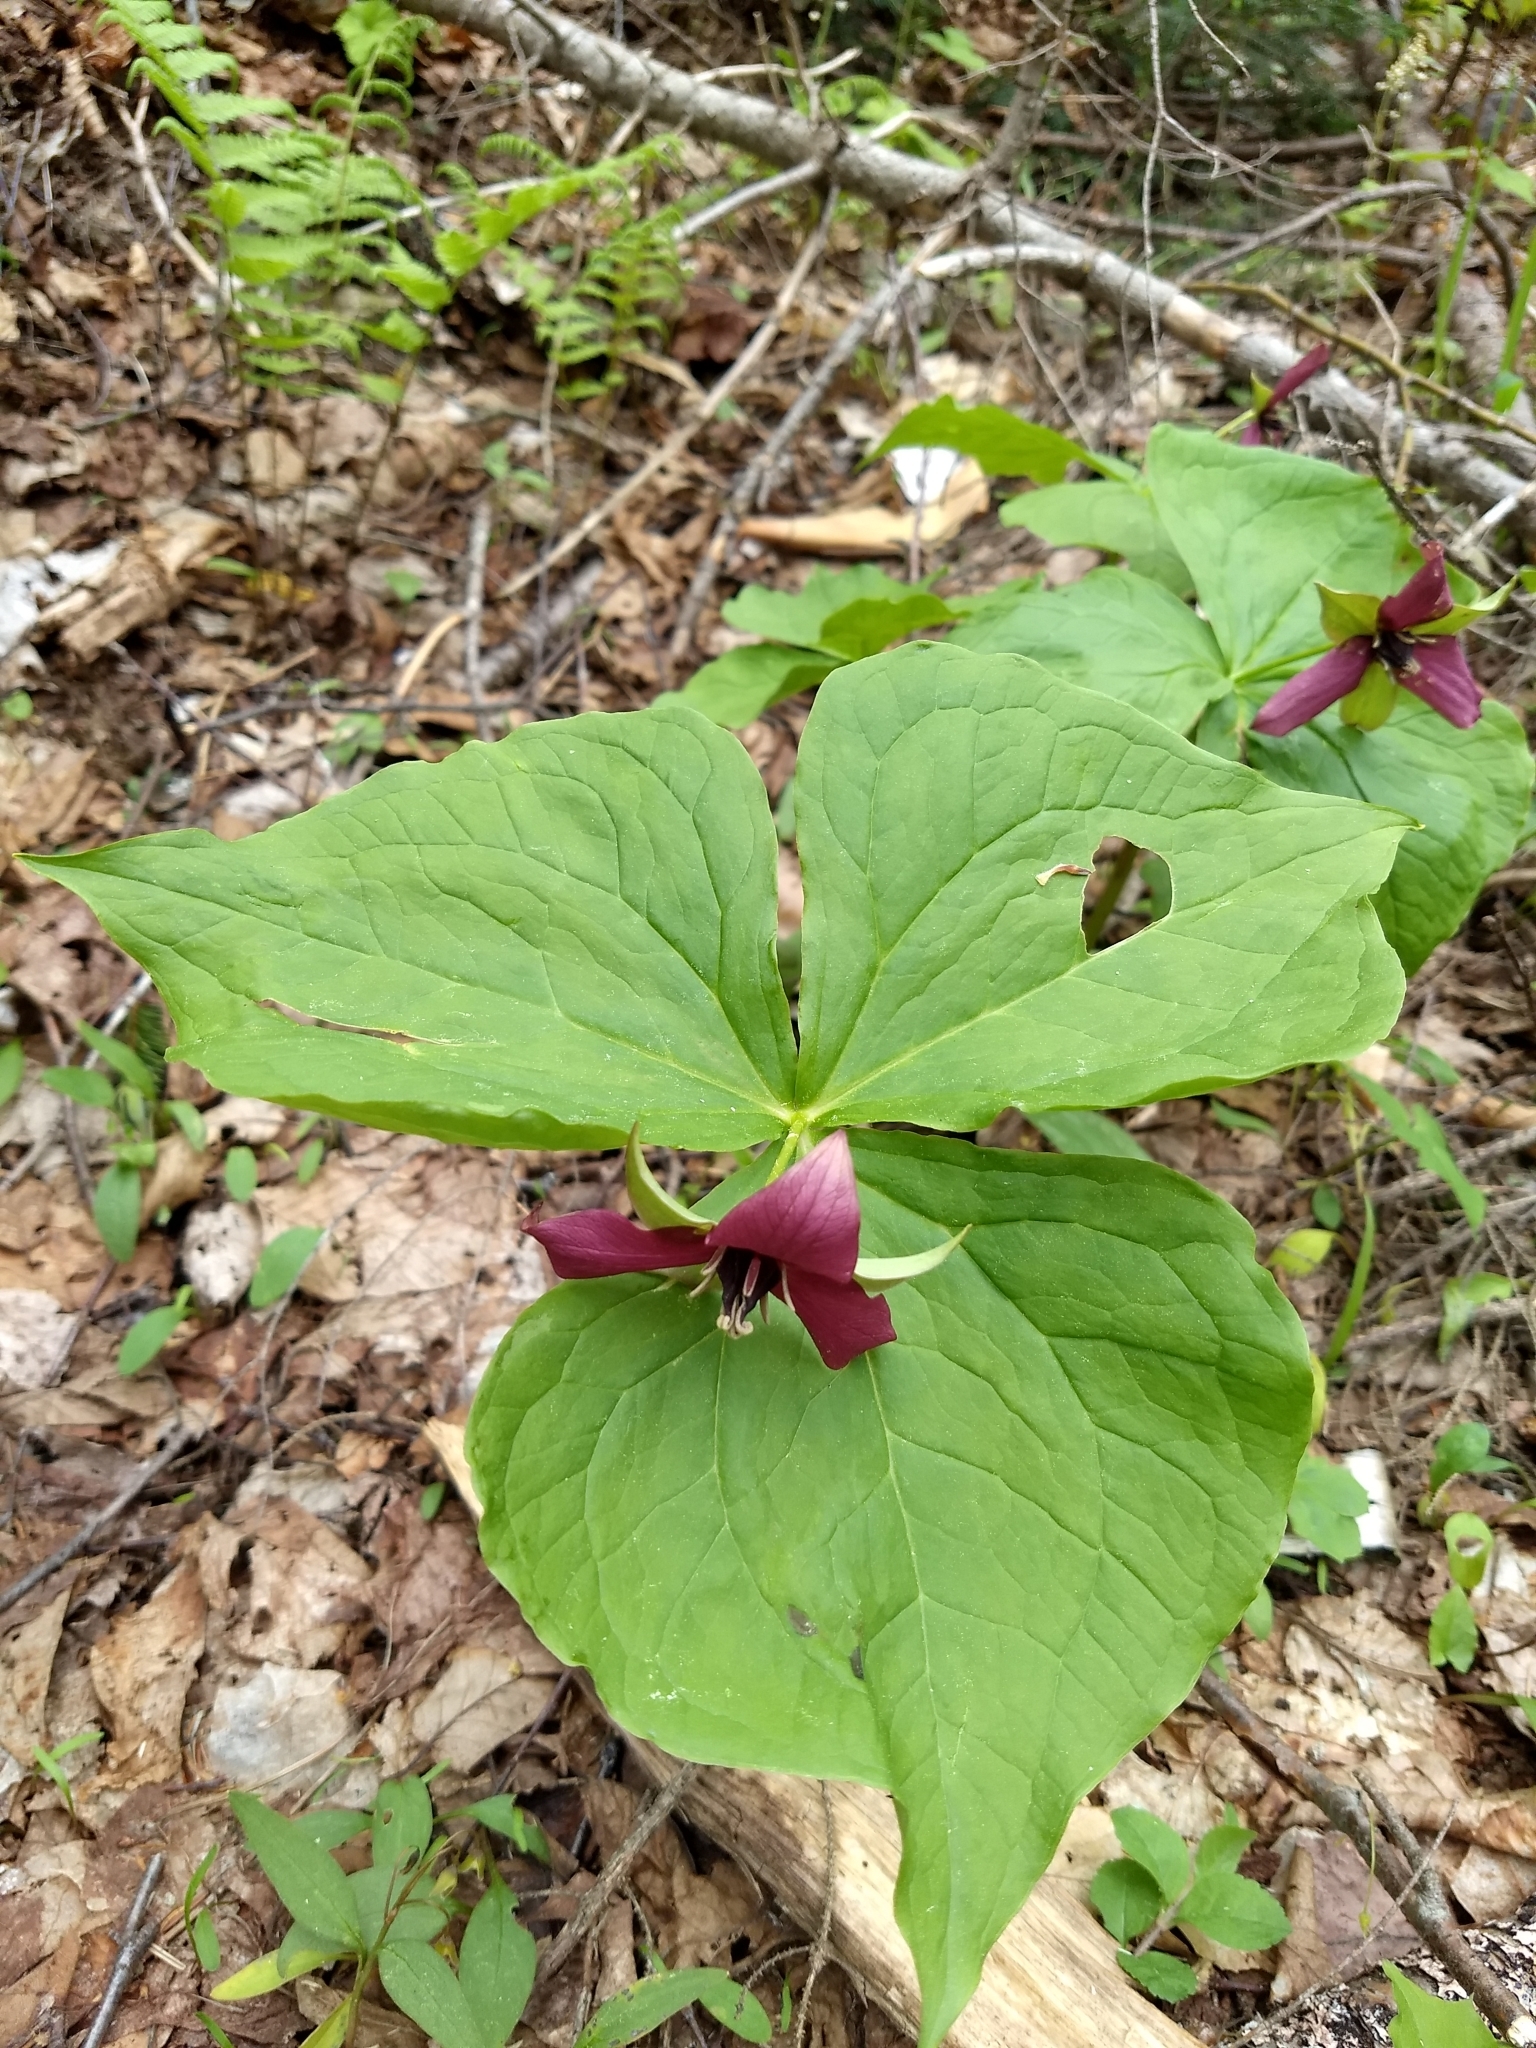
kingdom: Plantae
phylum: Tracheophyta
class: Liliopsida
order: Liliales
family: Melanthiaceae
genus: Trillium
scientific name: Trillium erectum
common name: Purple trillium
